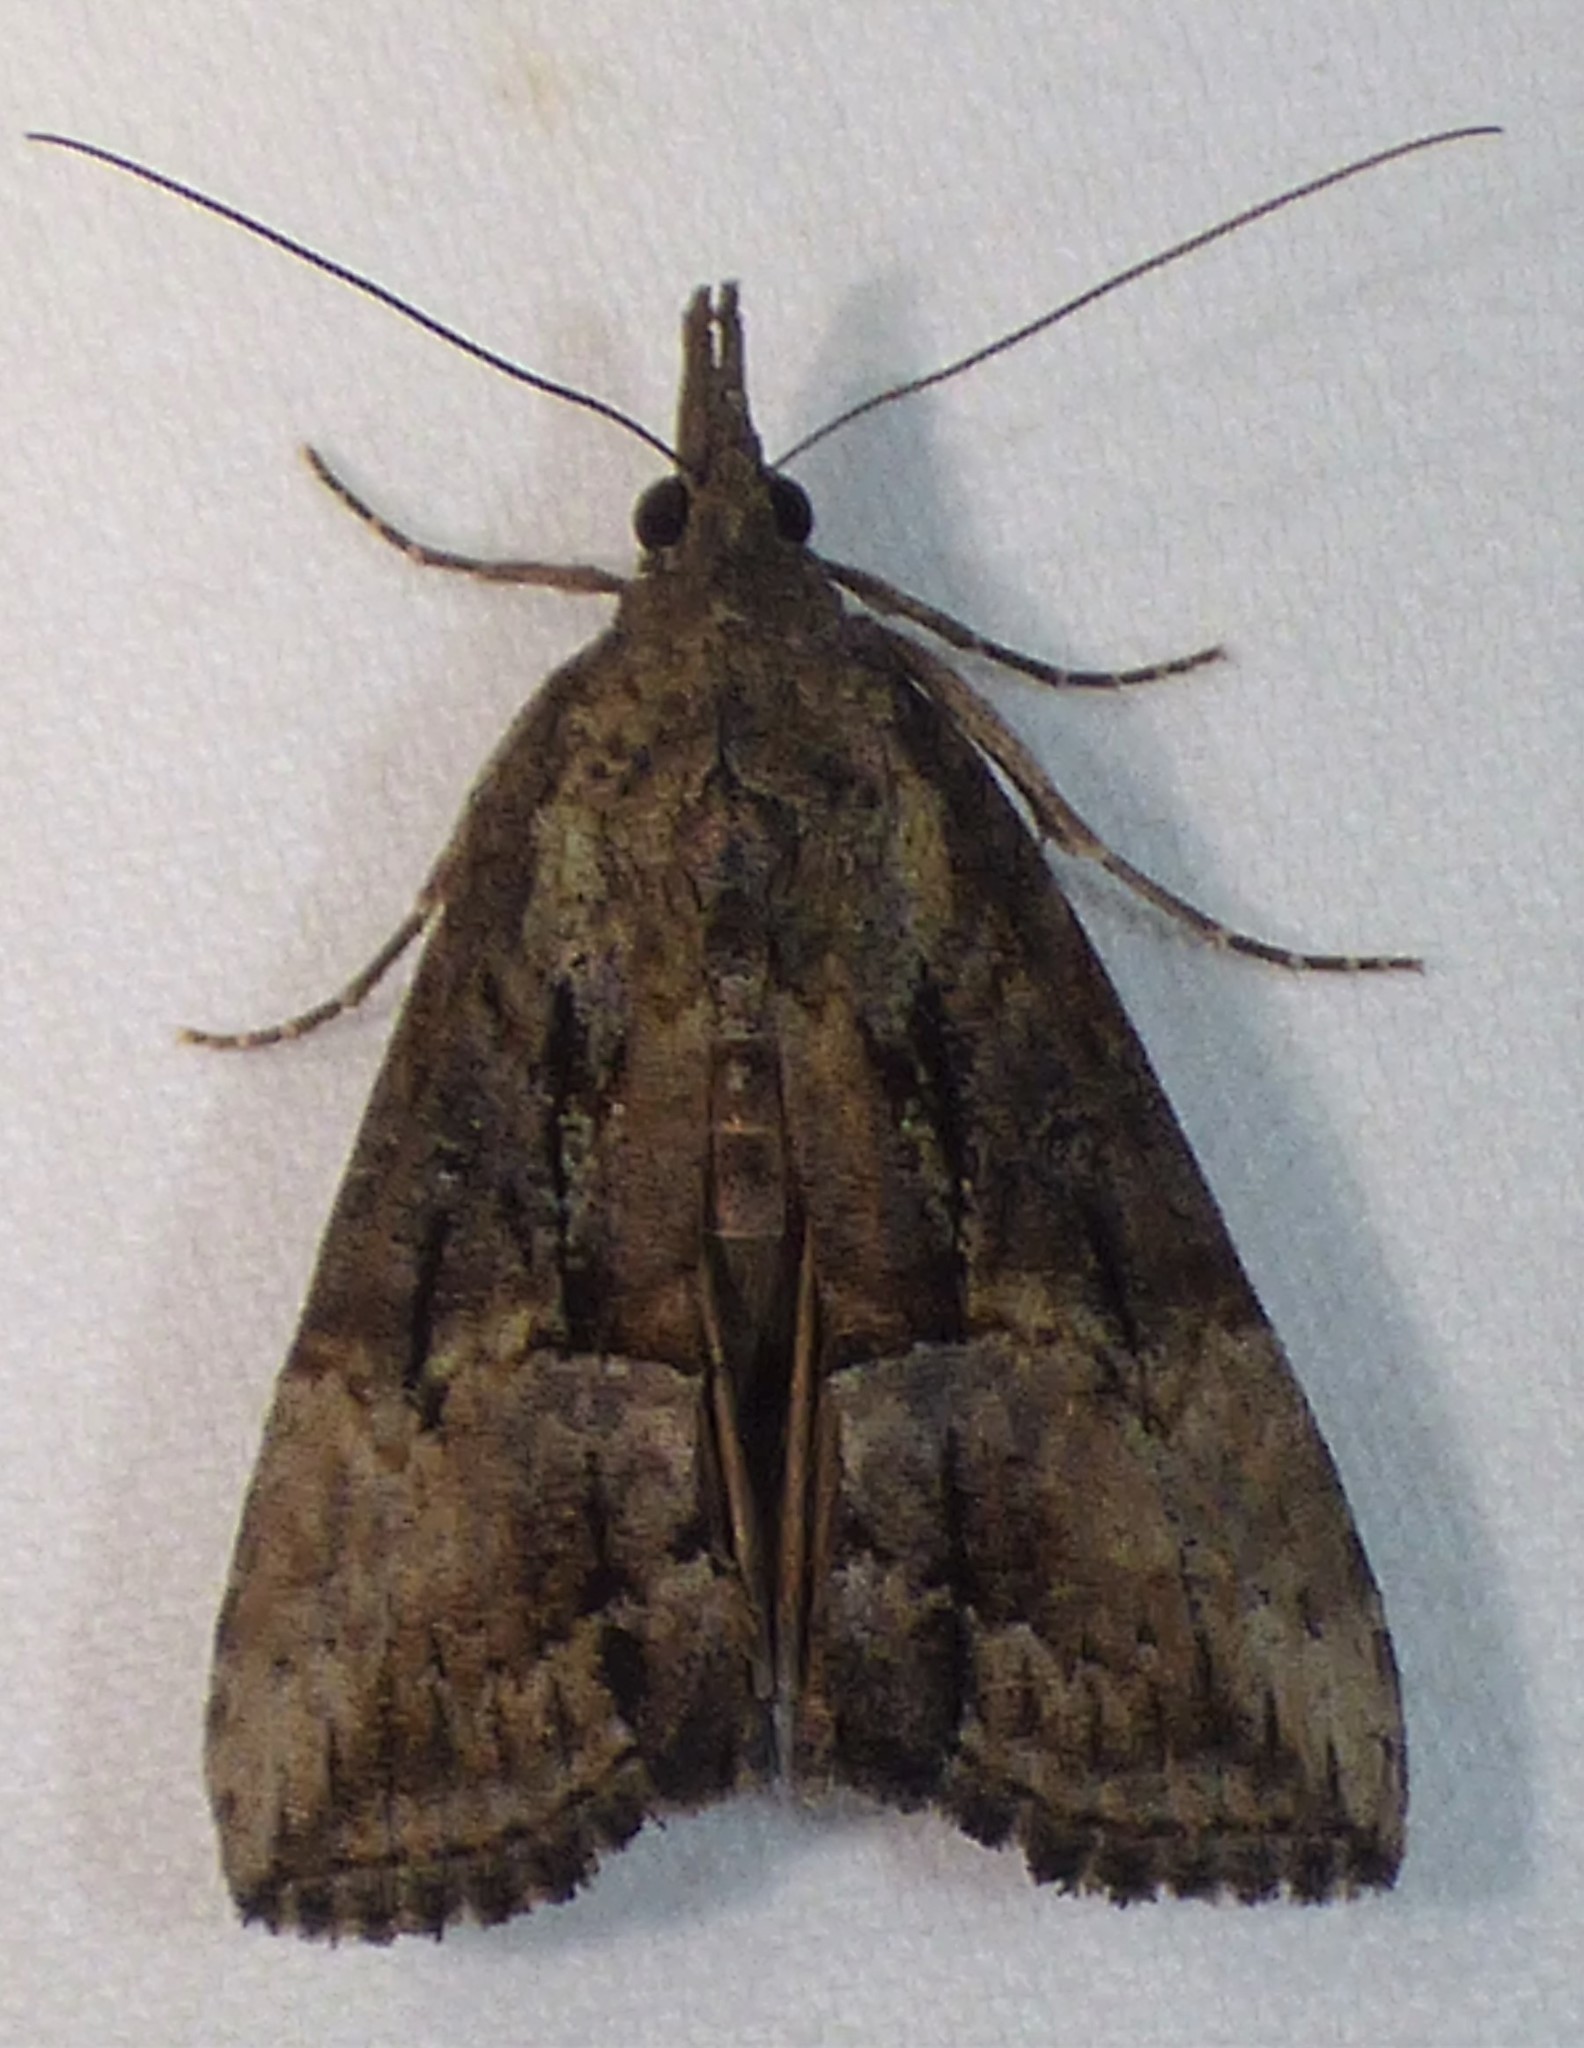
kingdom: Animalia
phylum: Arthropoda
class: Insecta
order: Lepidoptera
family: Erebidae
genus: Hypena
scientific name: Hypena scabra
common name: Green cloverworm
